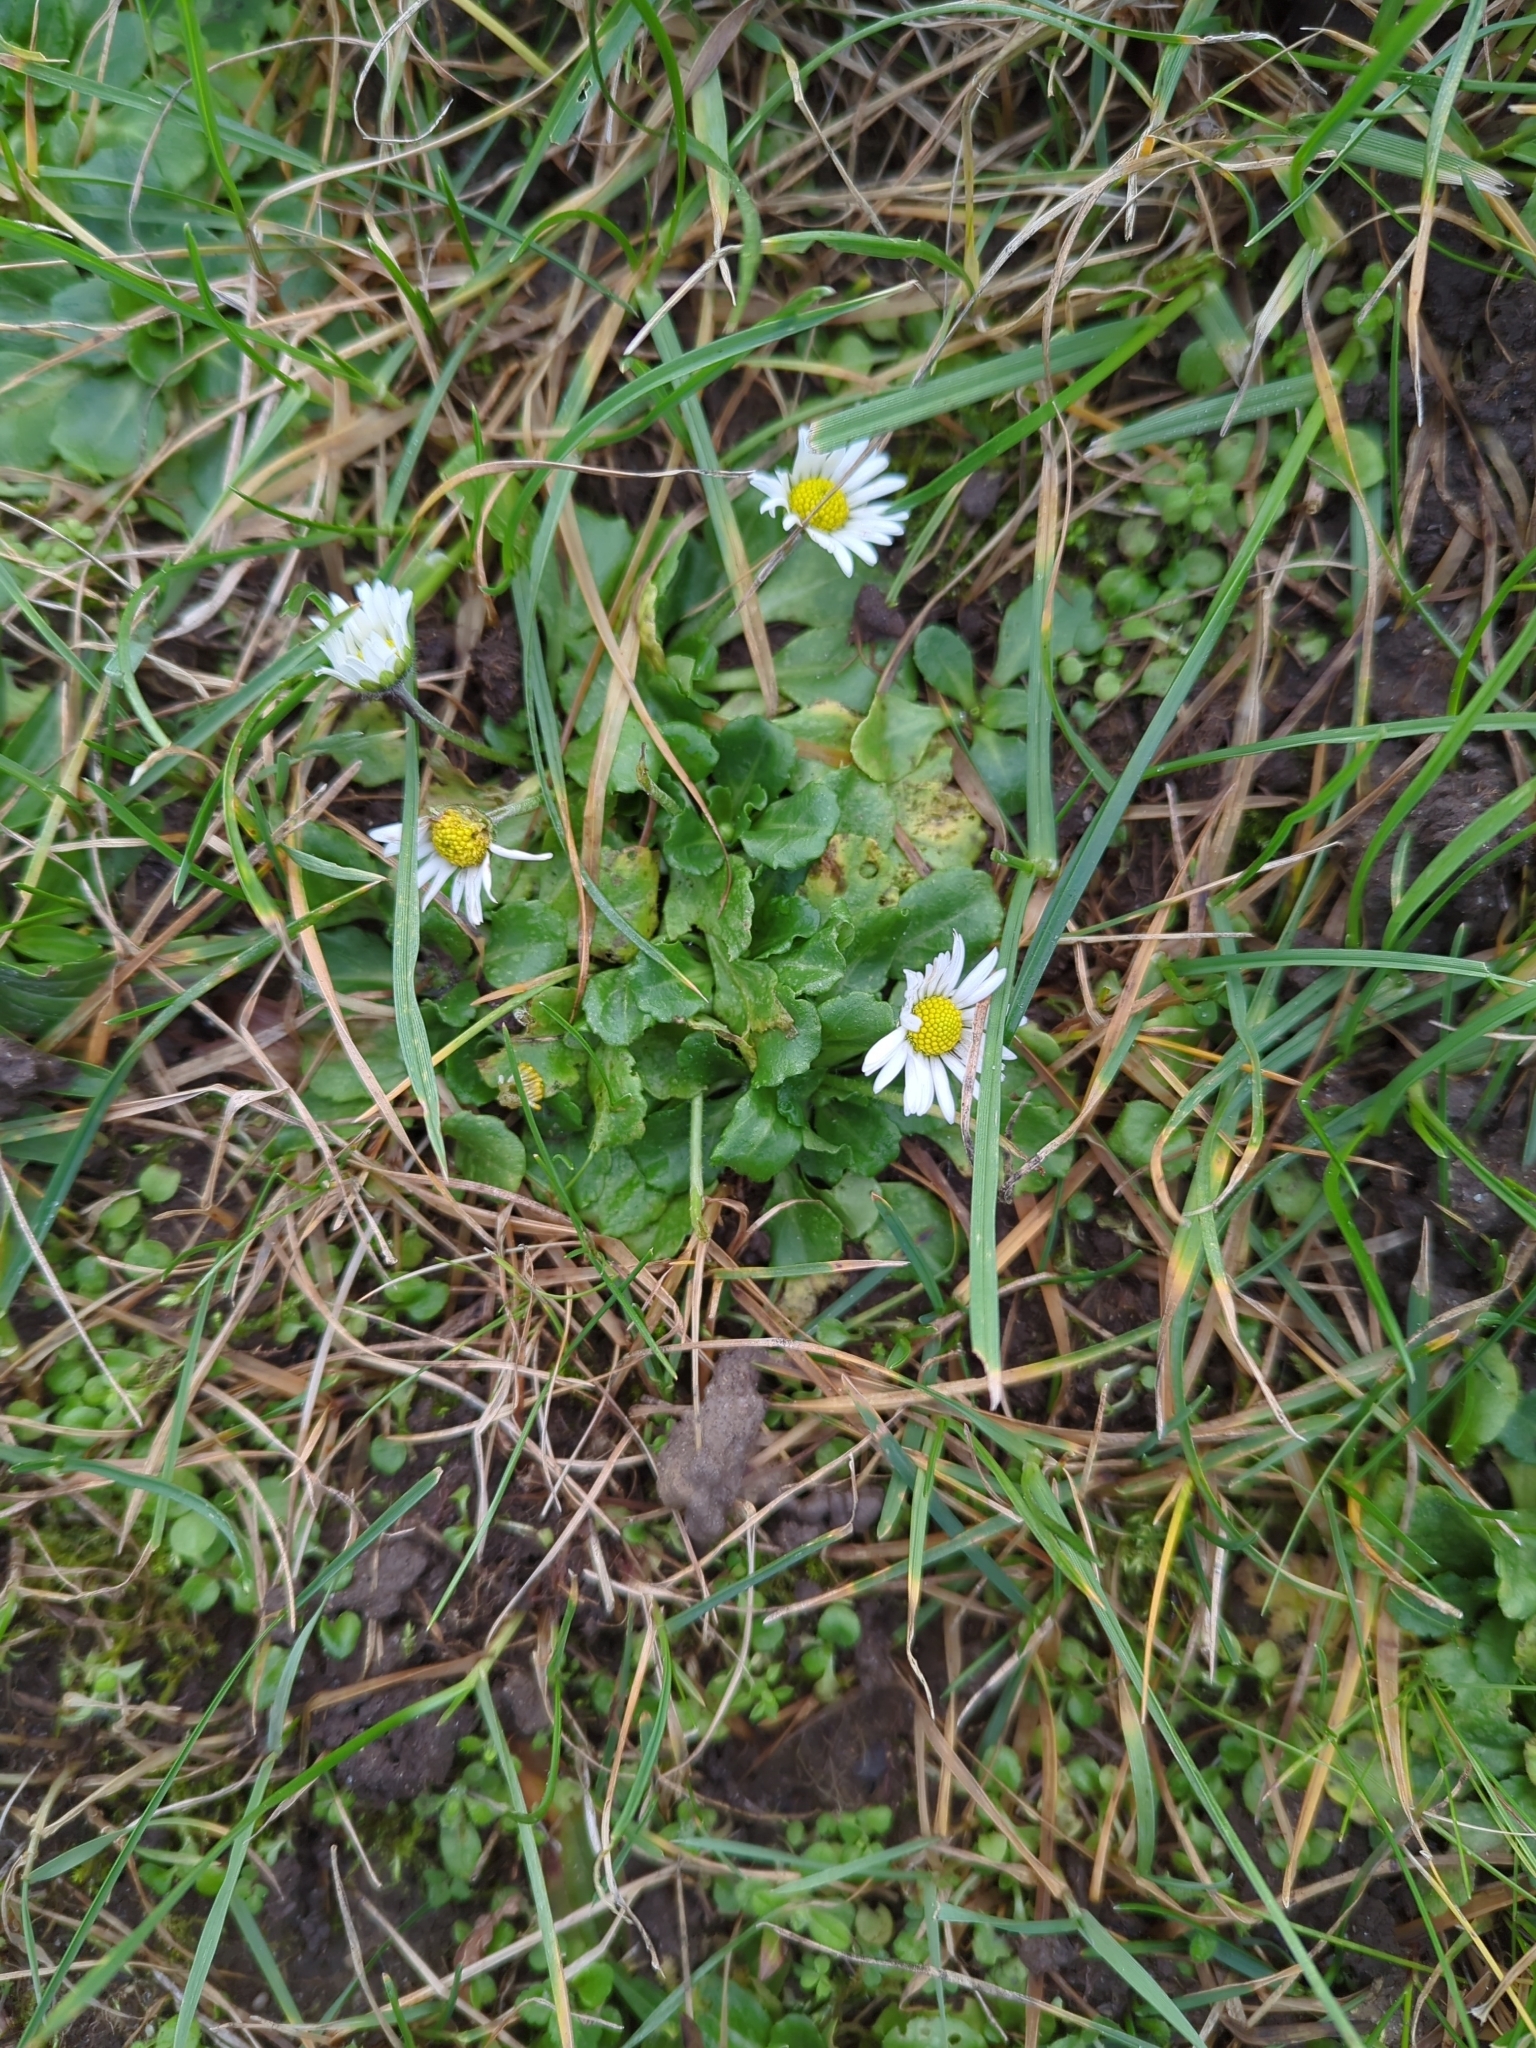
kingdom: Plantae
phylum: Tracheophyta
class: Magnoliopsida
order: Asterales
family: Asteraceae
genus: Bellis
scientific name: Bellis perennis
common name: Lawndaisy
